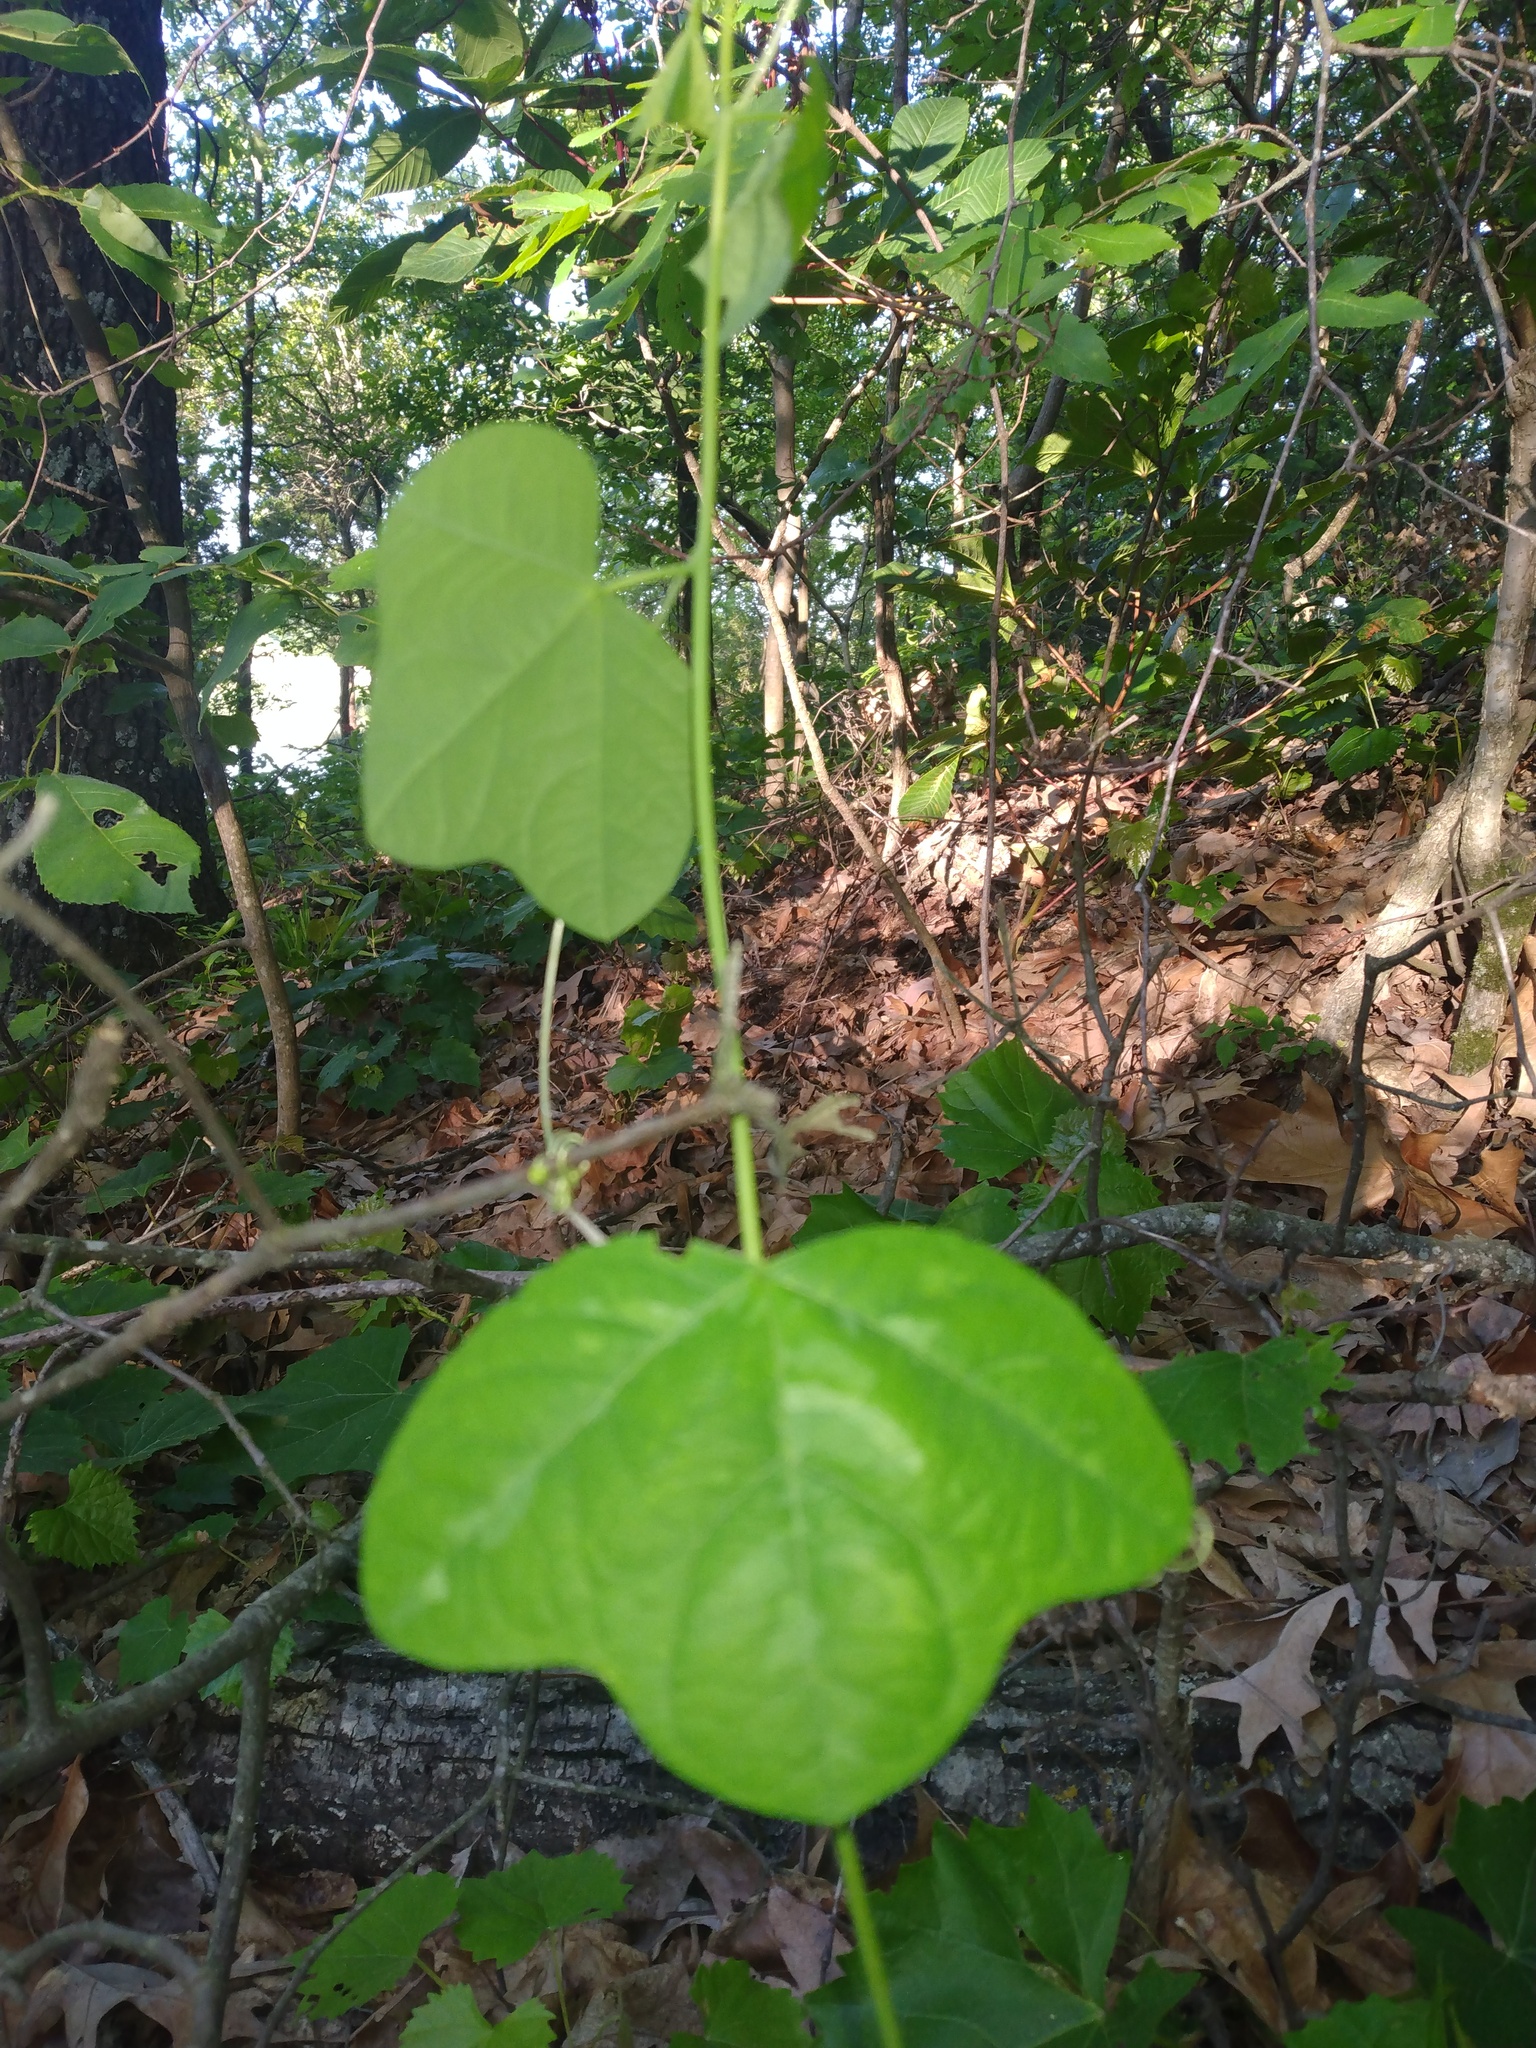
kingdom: Plantae
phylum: Tracheophyta
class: Magnoliopsida
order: Malpighiales
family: Passifloraceae
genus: Passiflora
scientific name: Passiflora lutea
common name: Yellow passionflower
